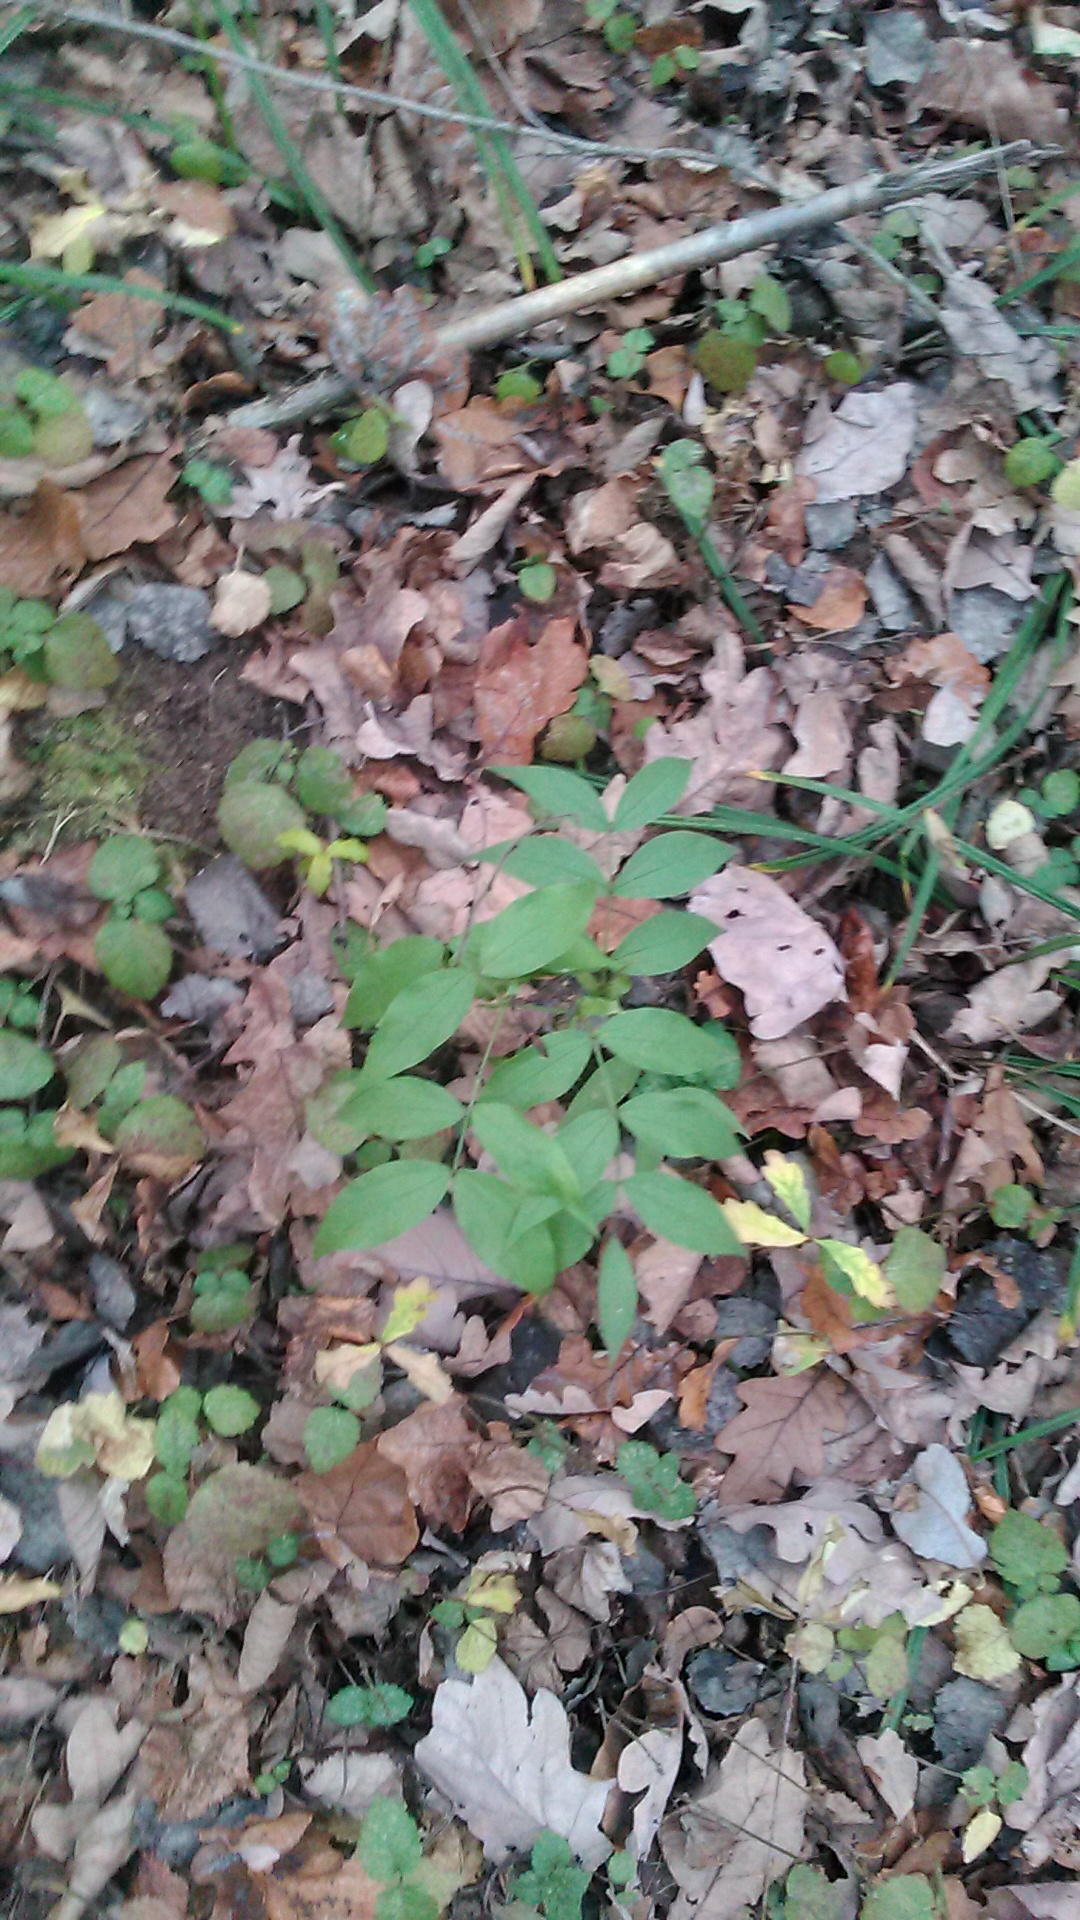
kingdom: Plantae
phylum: Tracheophyta
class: Magnoliopsida
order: Fabales
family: Fabaceae
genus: Lathyrus
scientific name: Lathyrus vernus
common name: Spring pea
